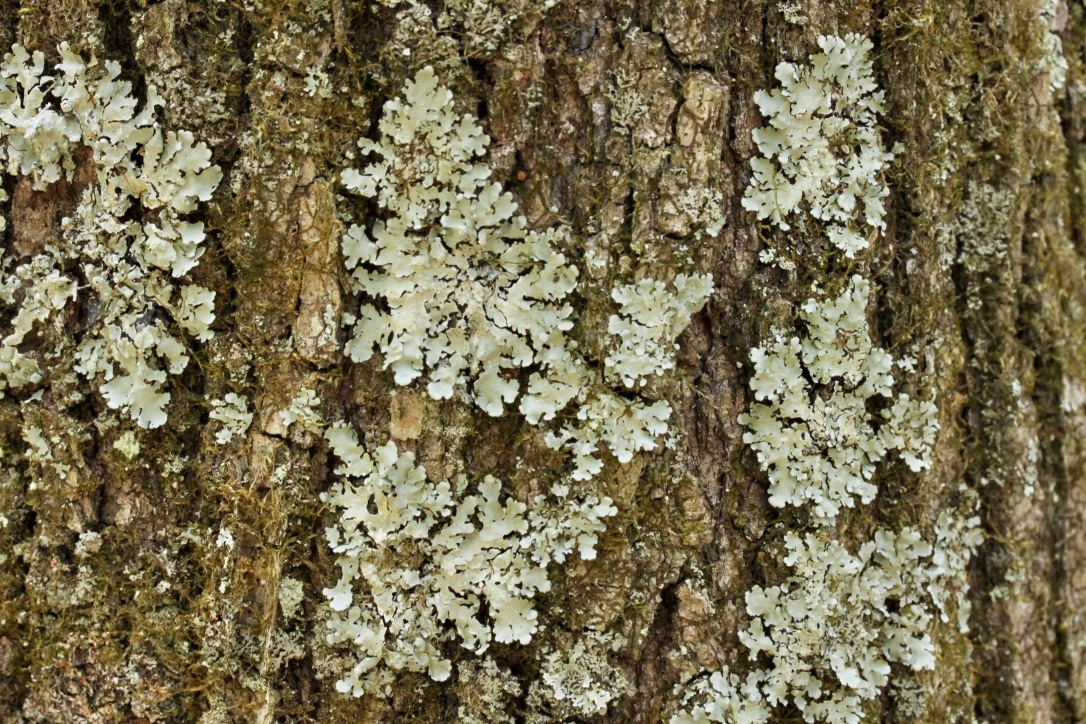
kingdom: Fungi
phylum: Ascomycota
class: Lecanoromycetes
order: Lecanorales
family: Parmeliaceae
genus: Myelochroa
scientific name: Myelochroa aurulenta
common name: Powdery axil-bristle lichen
